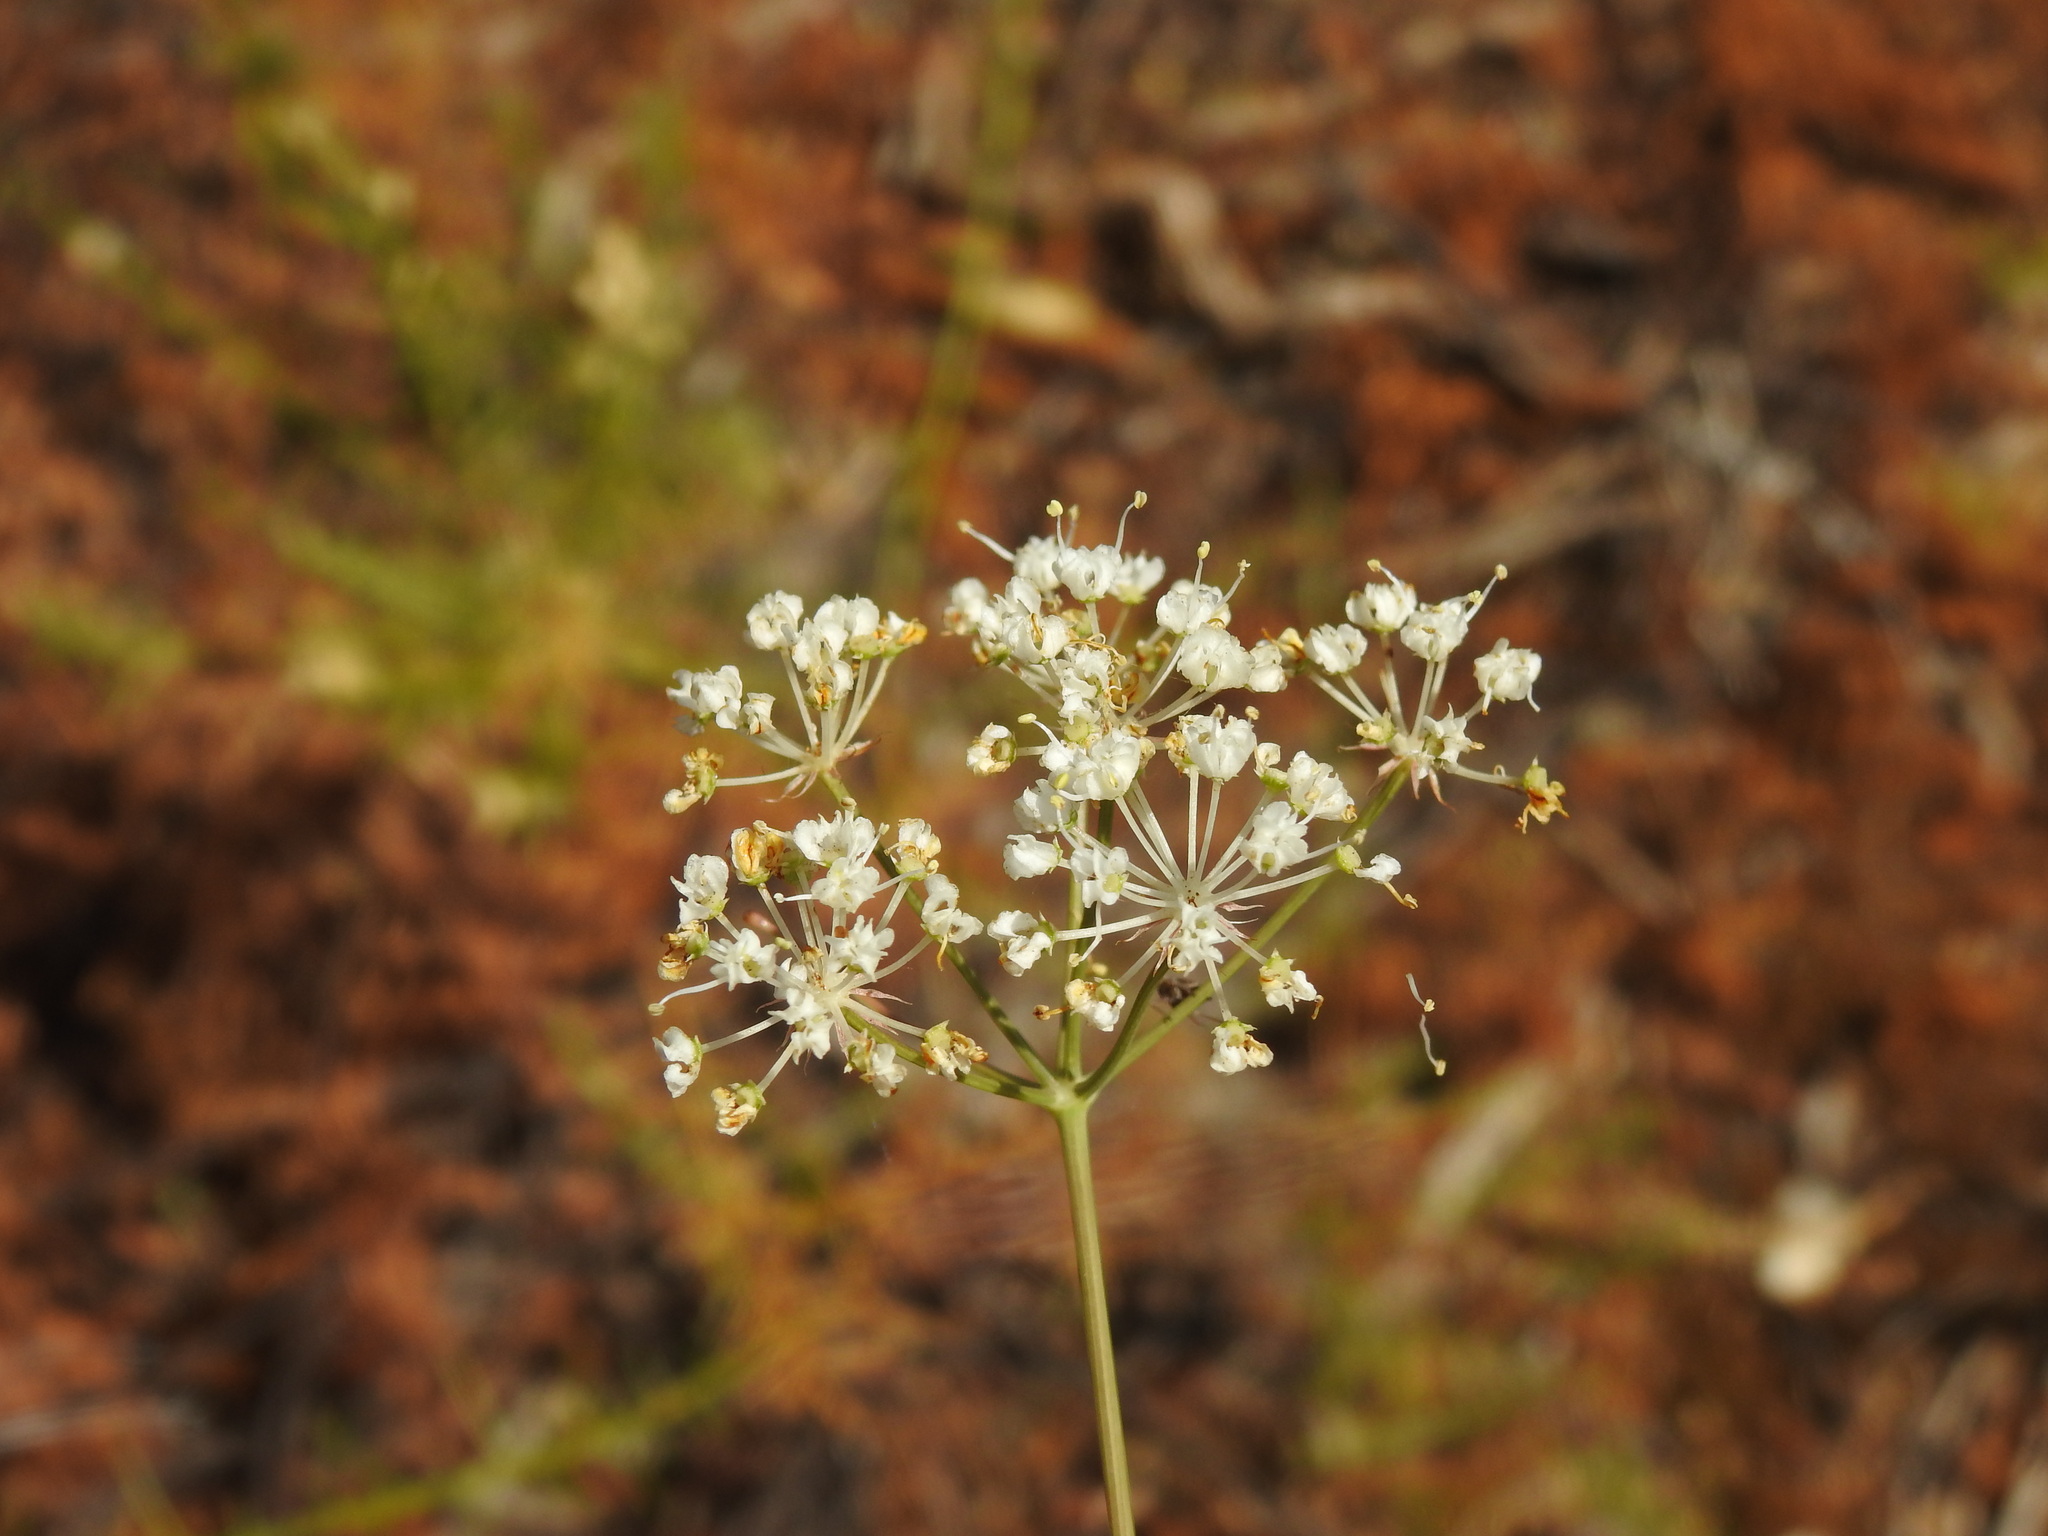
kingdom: Plantae
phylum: Tracheophyta
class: Magnoliopsida
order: Apiales
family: Apiaceae
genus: Thapsia
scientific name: Thapsia gummifera
